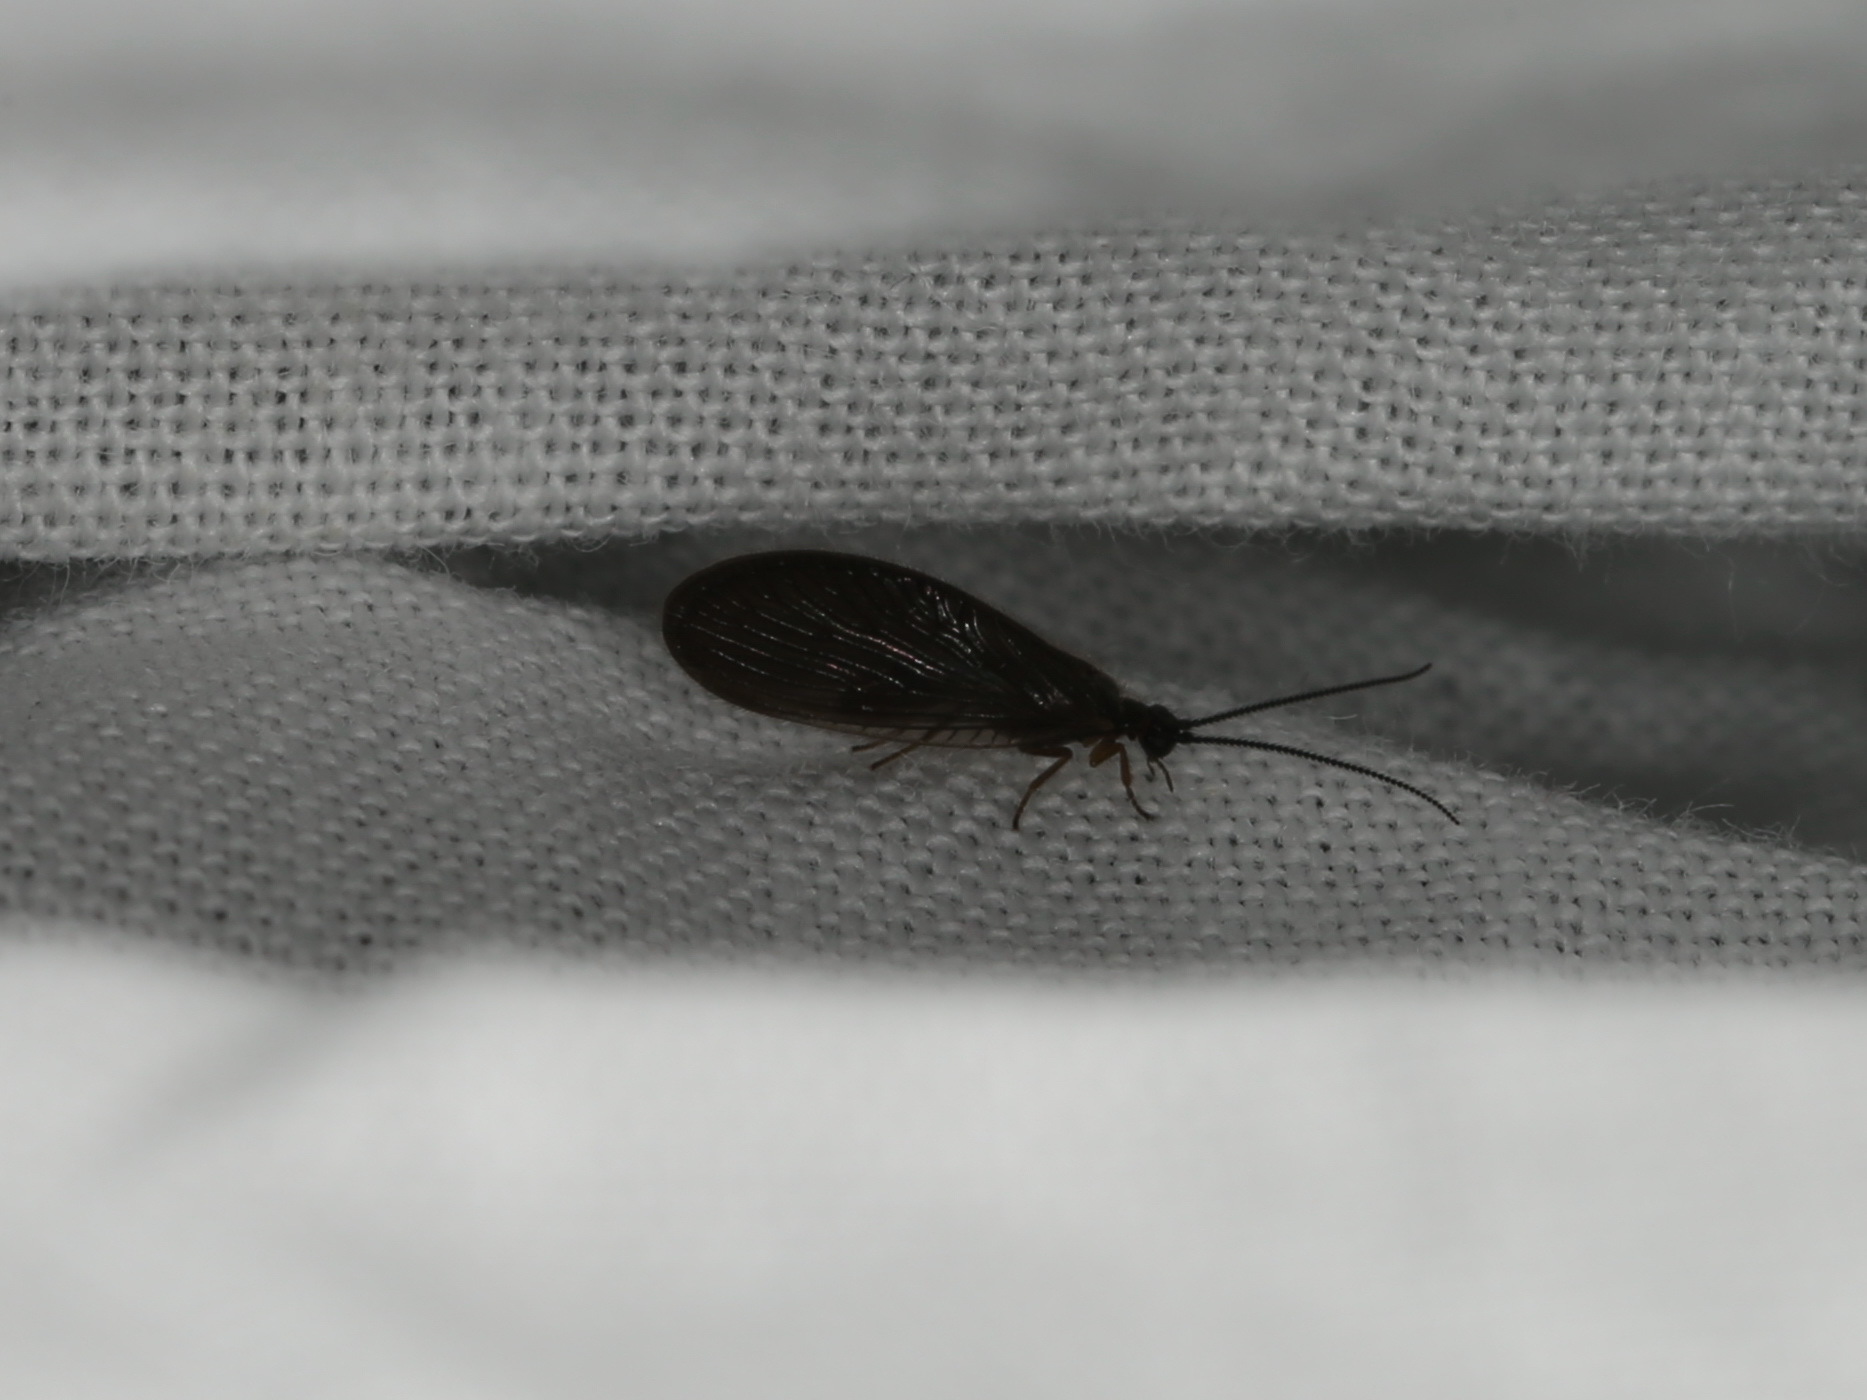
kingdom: Animalia
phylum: Arthropoda
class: Insecta
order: Neuroptera
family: Sisyridae
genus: Sisyra
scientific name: Sisyra nigra
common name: Black spongillafly
